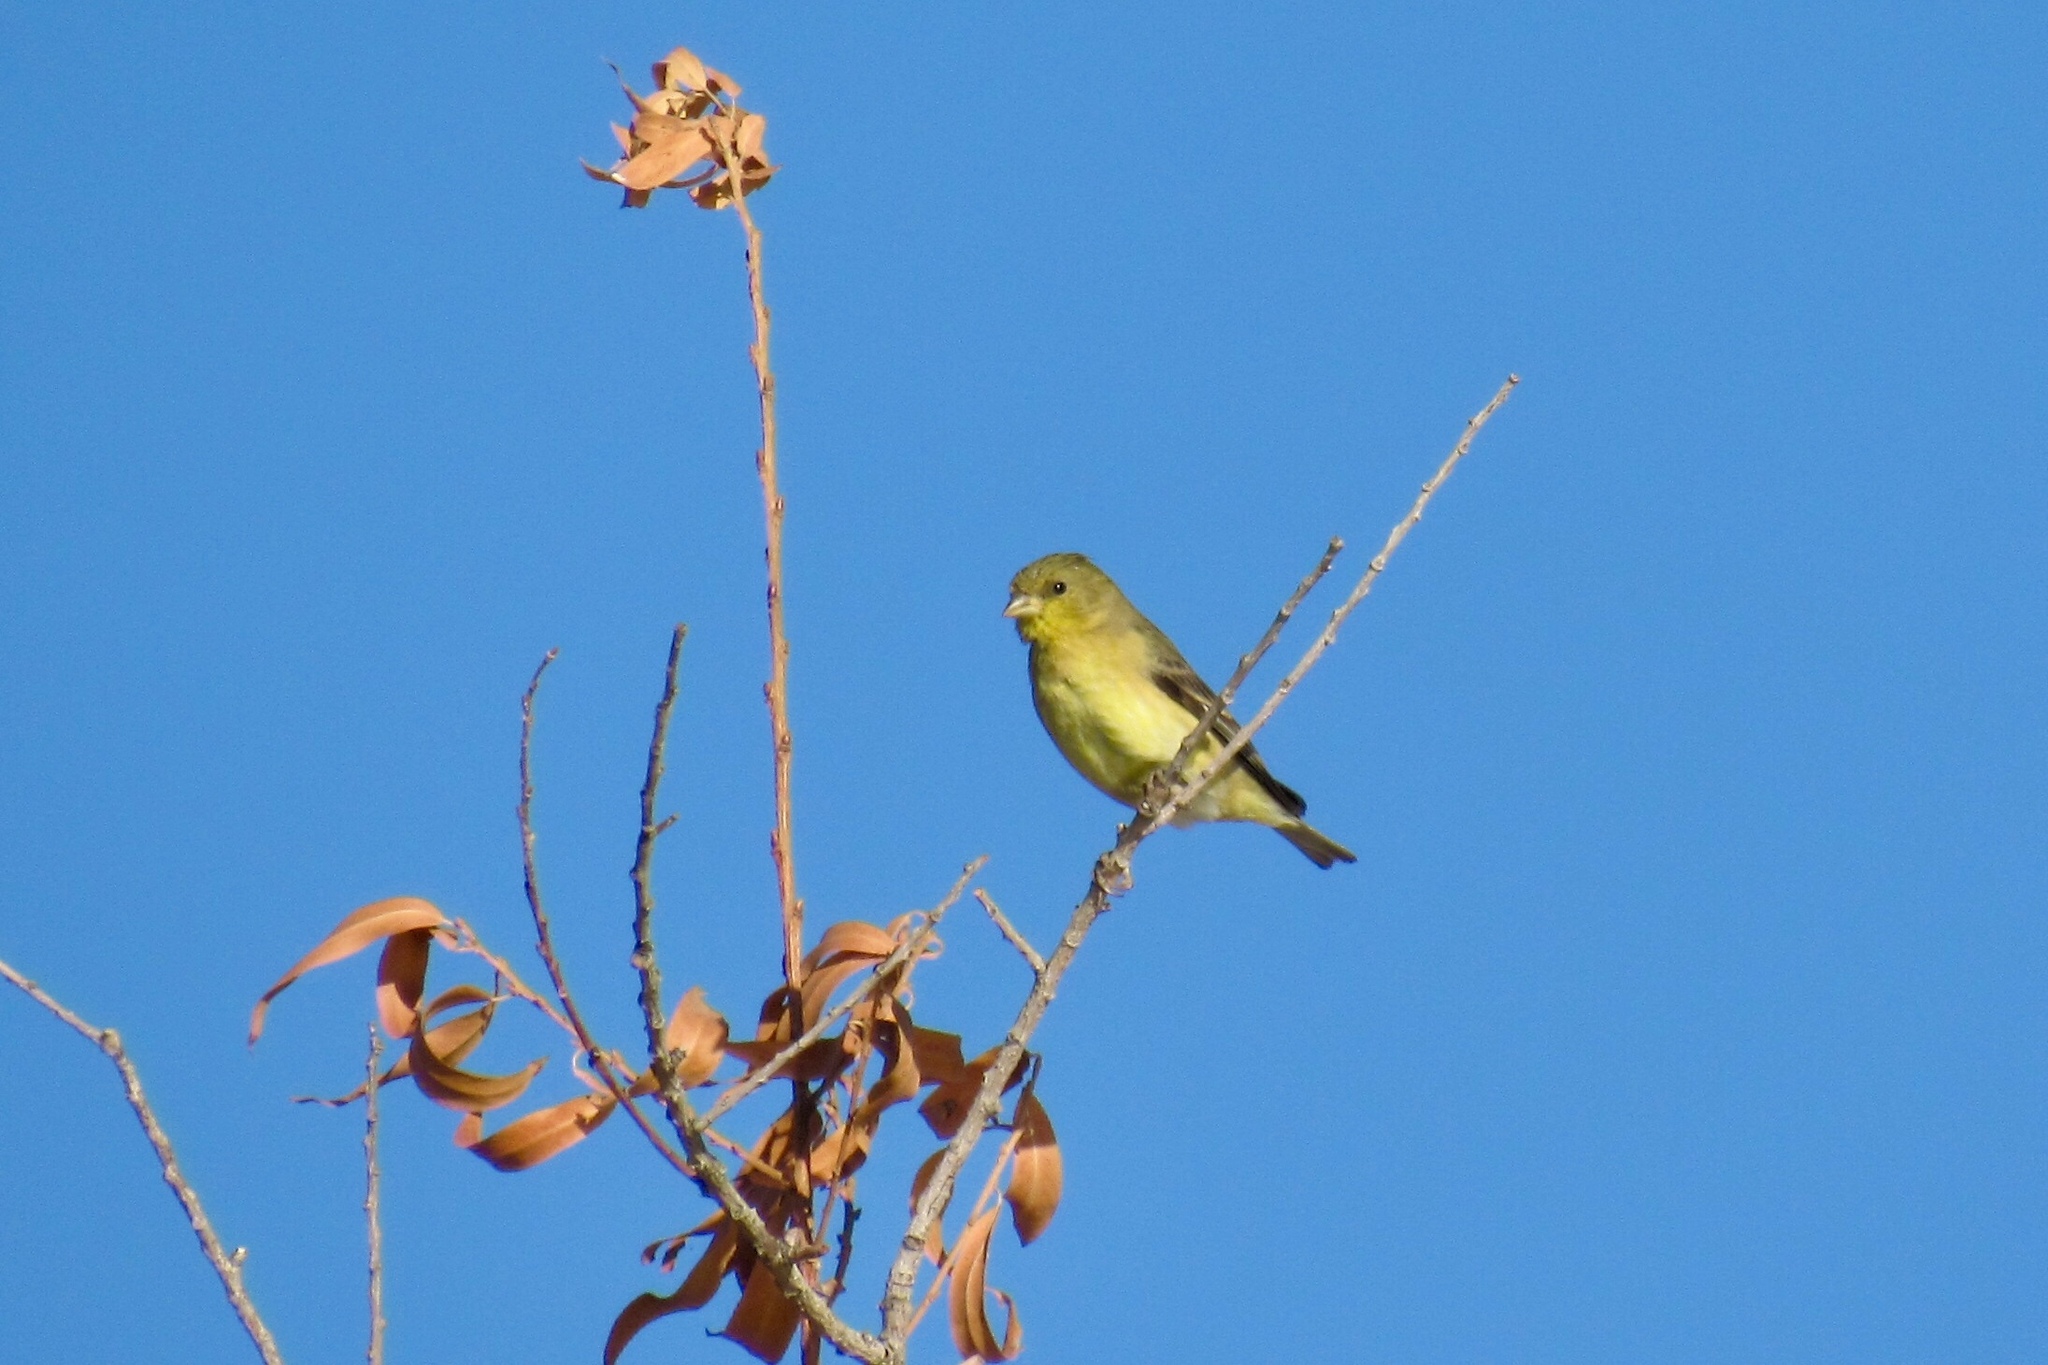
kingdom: Animalia
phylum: Chordata
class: Aves
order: Passeriformes
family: Fringillidae
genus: Spinus
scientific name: Spinus psaltria
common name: Lesser goldfinch
